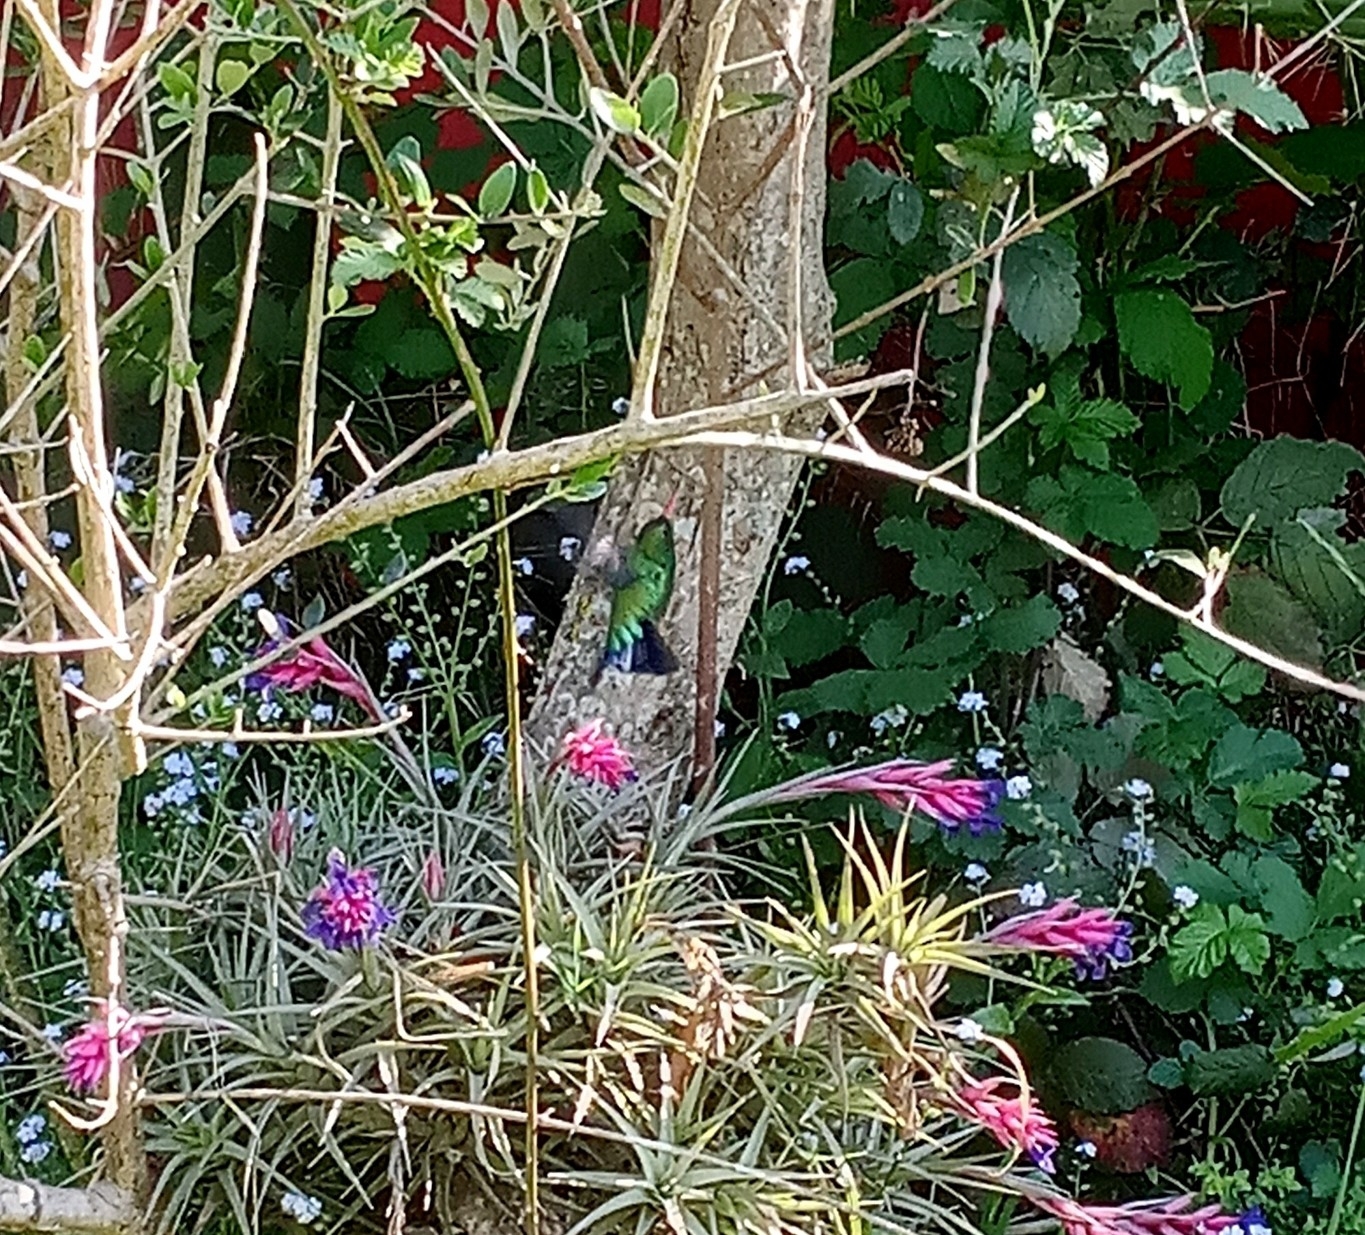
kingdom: Animalia
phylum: Chordata
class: Aves
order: Apodiformes
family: Trochilidae
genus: Chlorostilbon
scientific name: Chlorostilbon lucidus
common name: Glittering-bellied emerald
